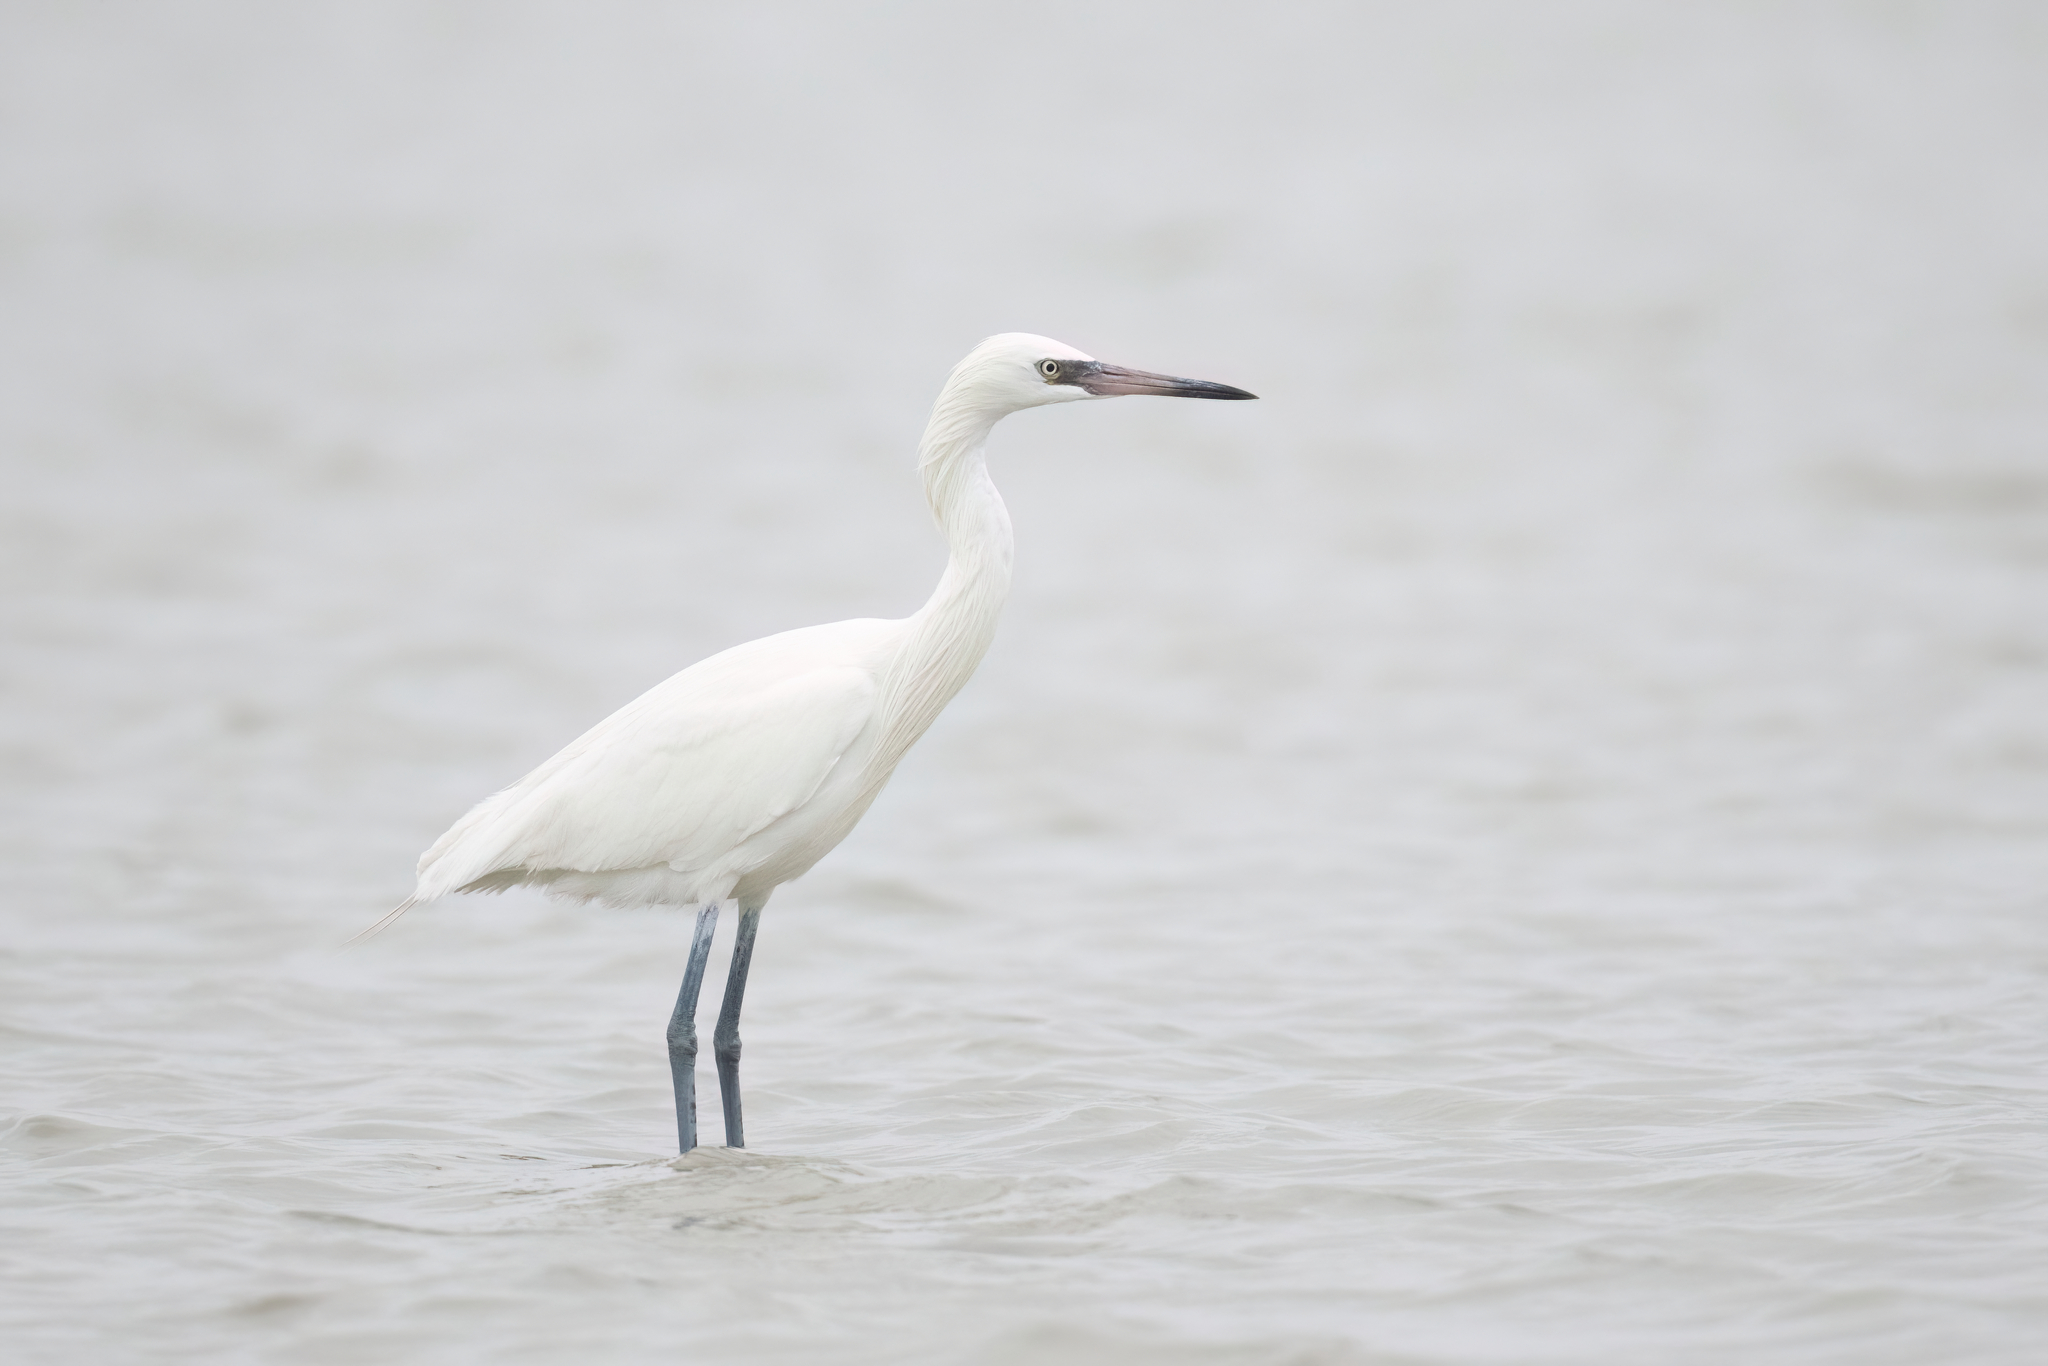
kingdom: Animalia
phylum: Chordata
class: Aves
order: Pelecaniformes
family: Ardeidae
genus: Egretta
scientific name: Egretta rufescens
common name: Reddish egret
